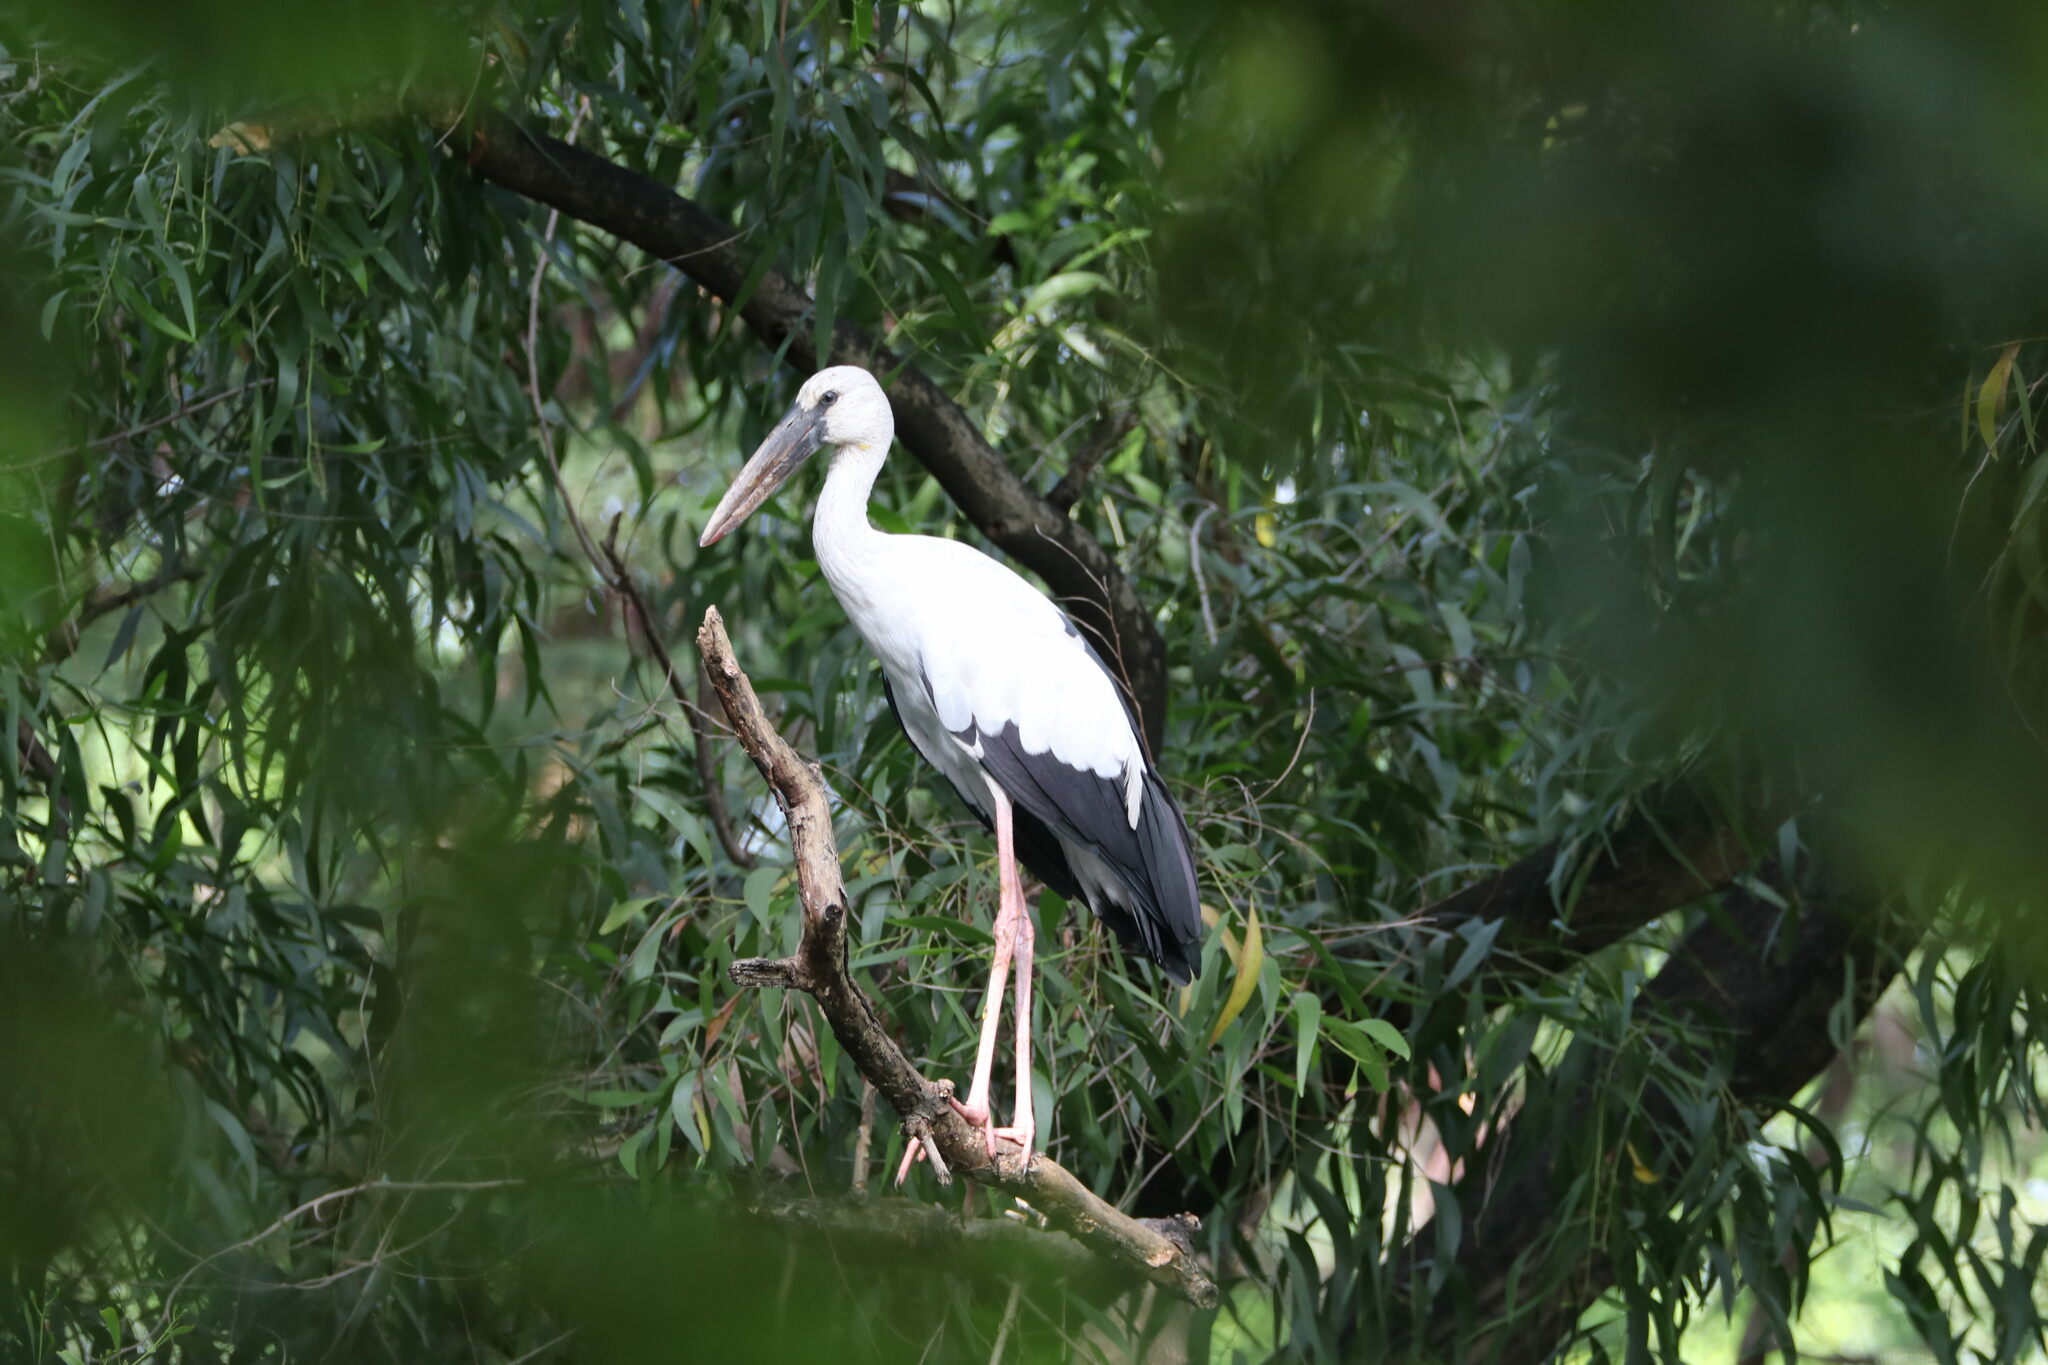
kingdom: Animalia
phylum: Chordata
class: Aves
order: Ciconiiformes
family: Ciconiidae
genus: Anastomus
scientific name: Anastomus oscitans
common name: Asian openbill
